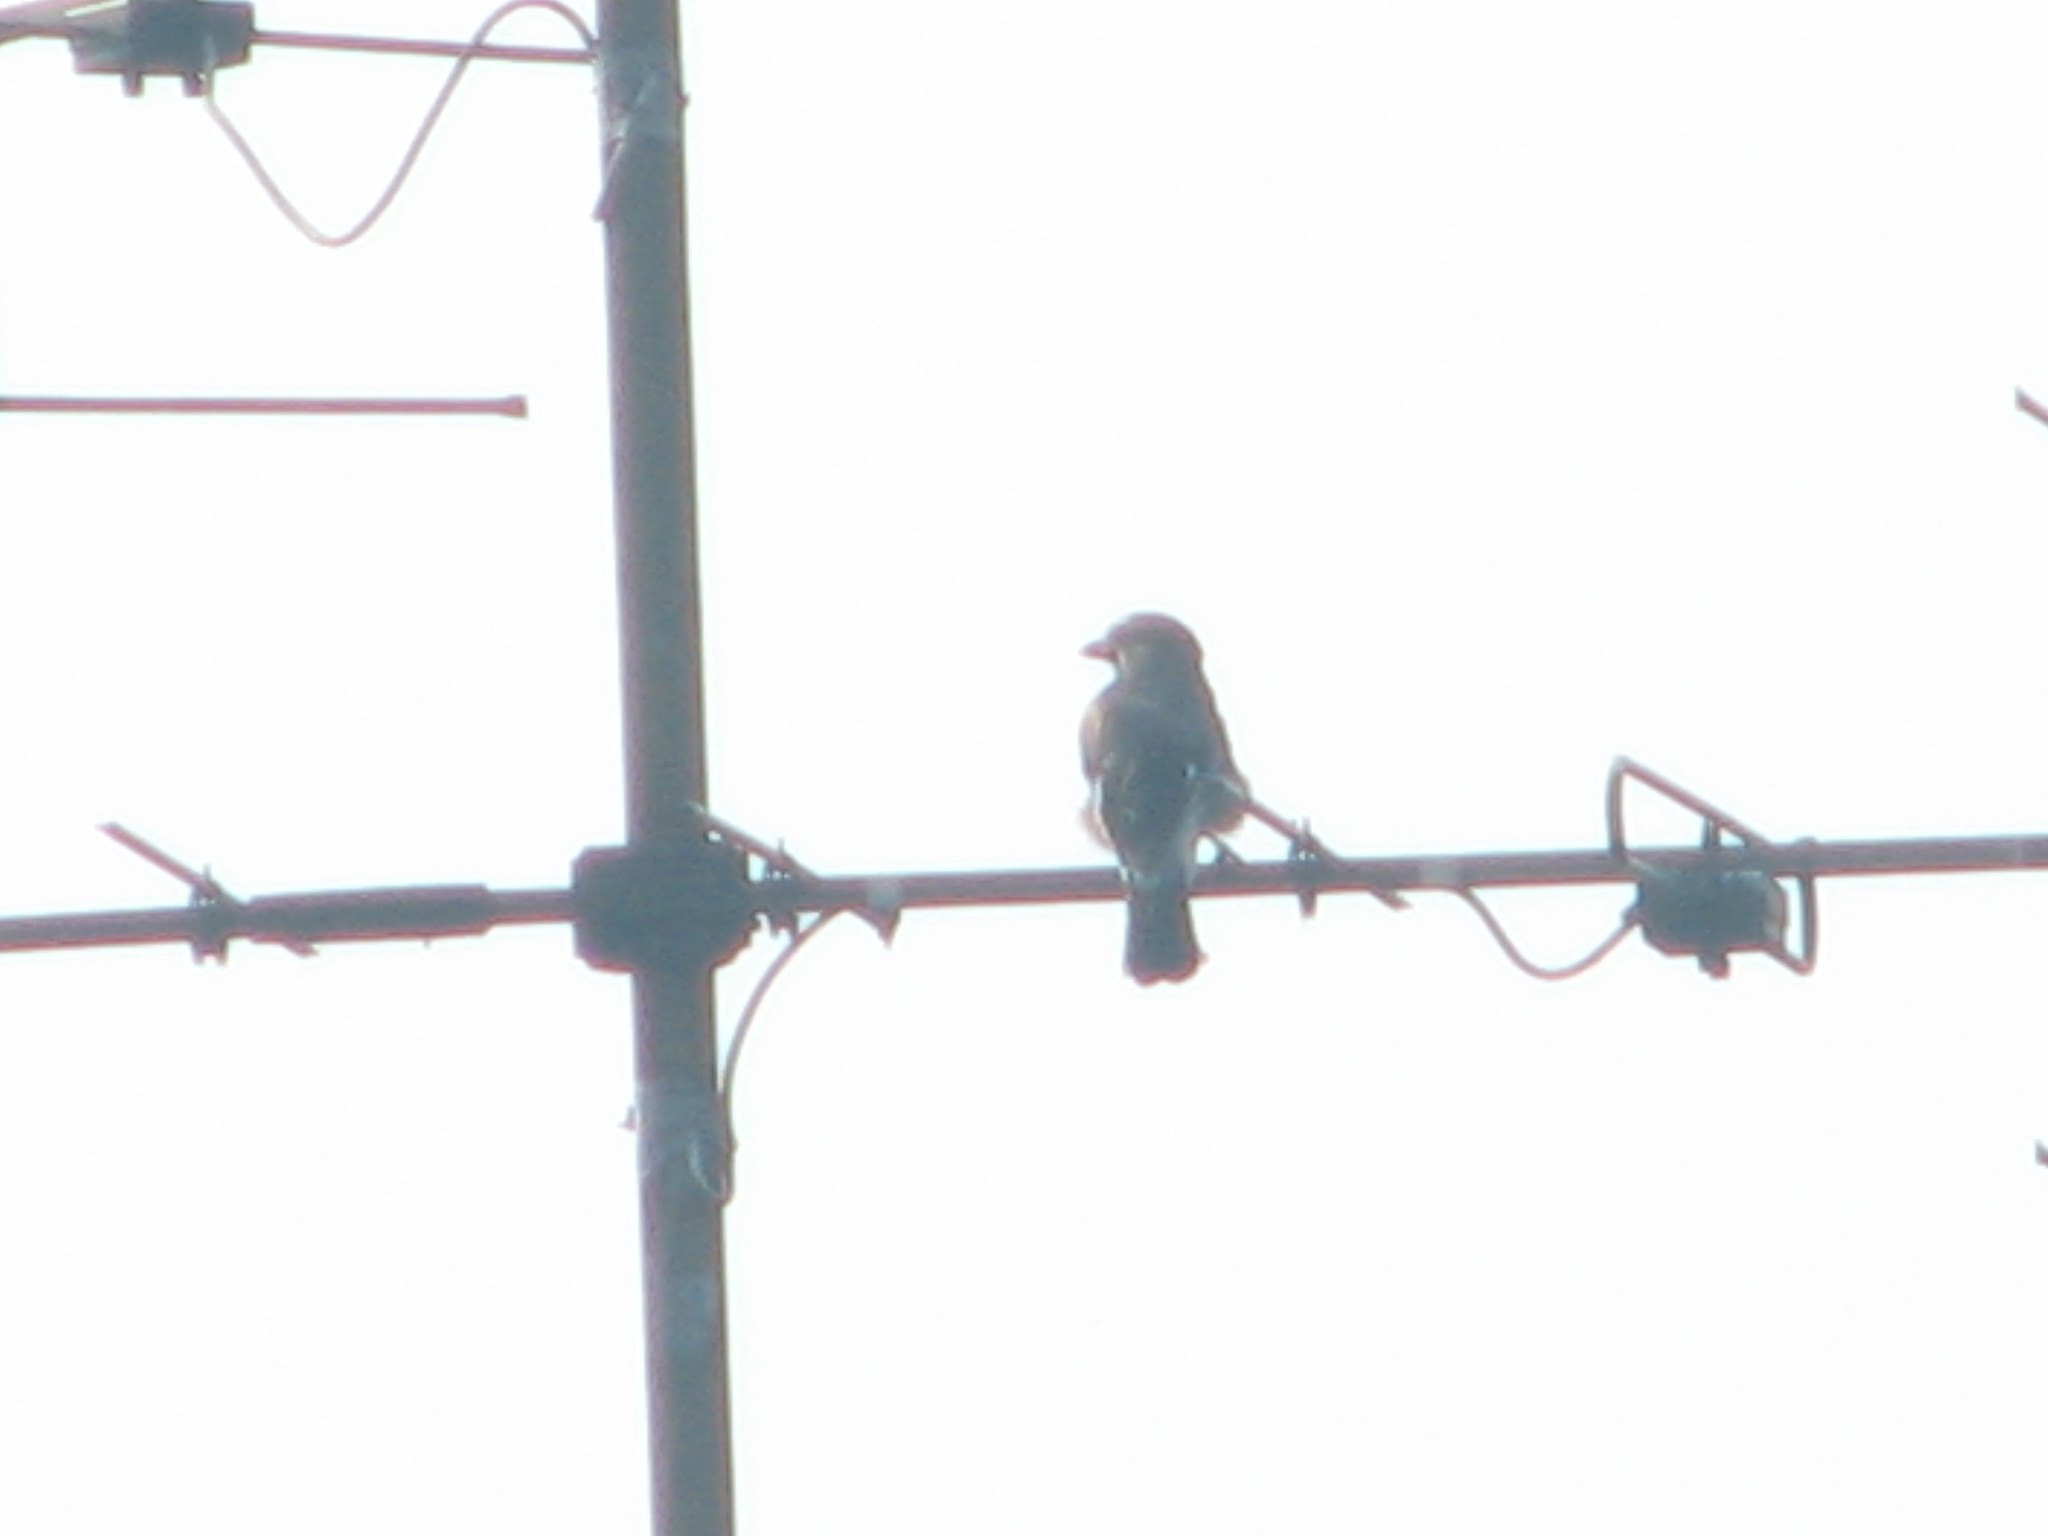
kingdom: Animalia
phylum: Chordata
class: Aves
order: Passeriformes
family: Corvidae
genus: Garrulus
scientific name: Garrulus glandarius
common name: Eurasian jay
